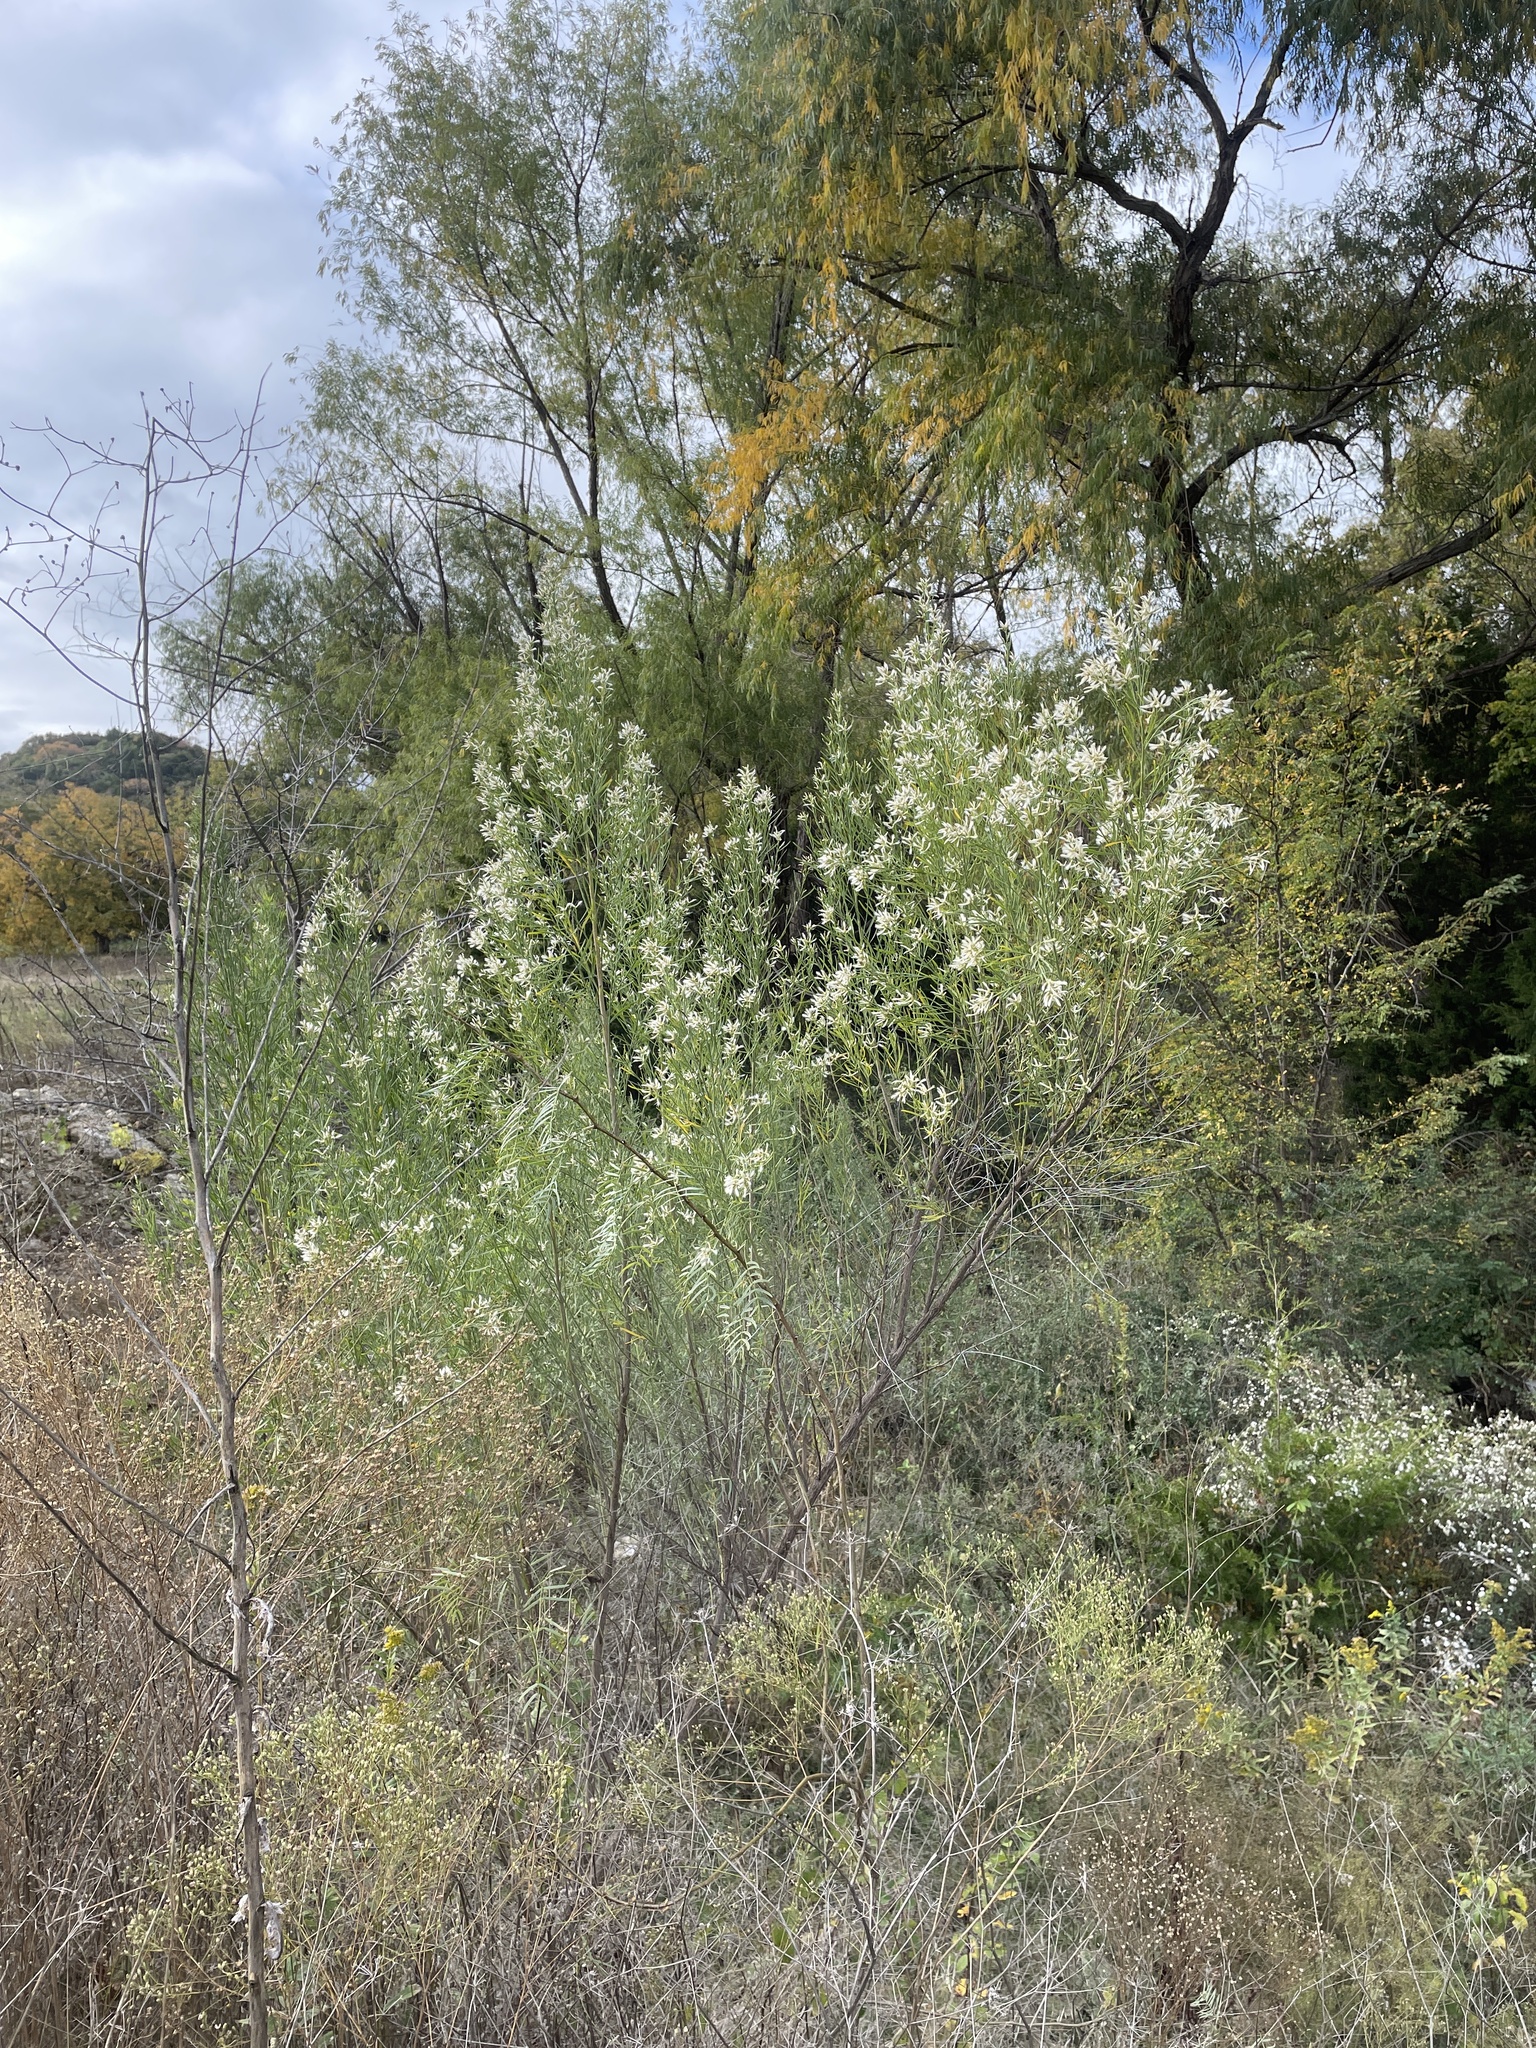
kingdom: Plantae
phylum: Tracheophyta
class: Magnoliopsida
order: Asterales
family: Asteraceae
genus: Baccharis
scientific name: Baccharis neglecta
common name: Roosevelt-weed
